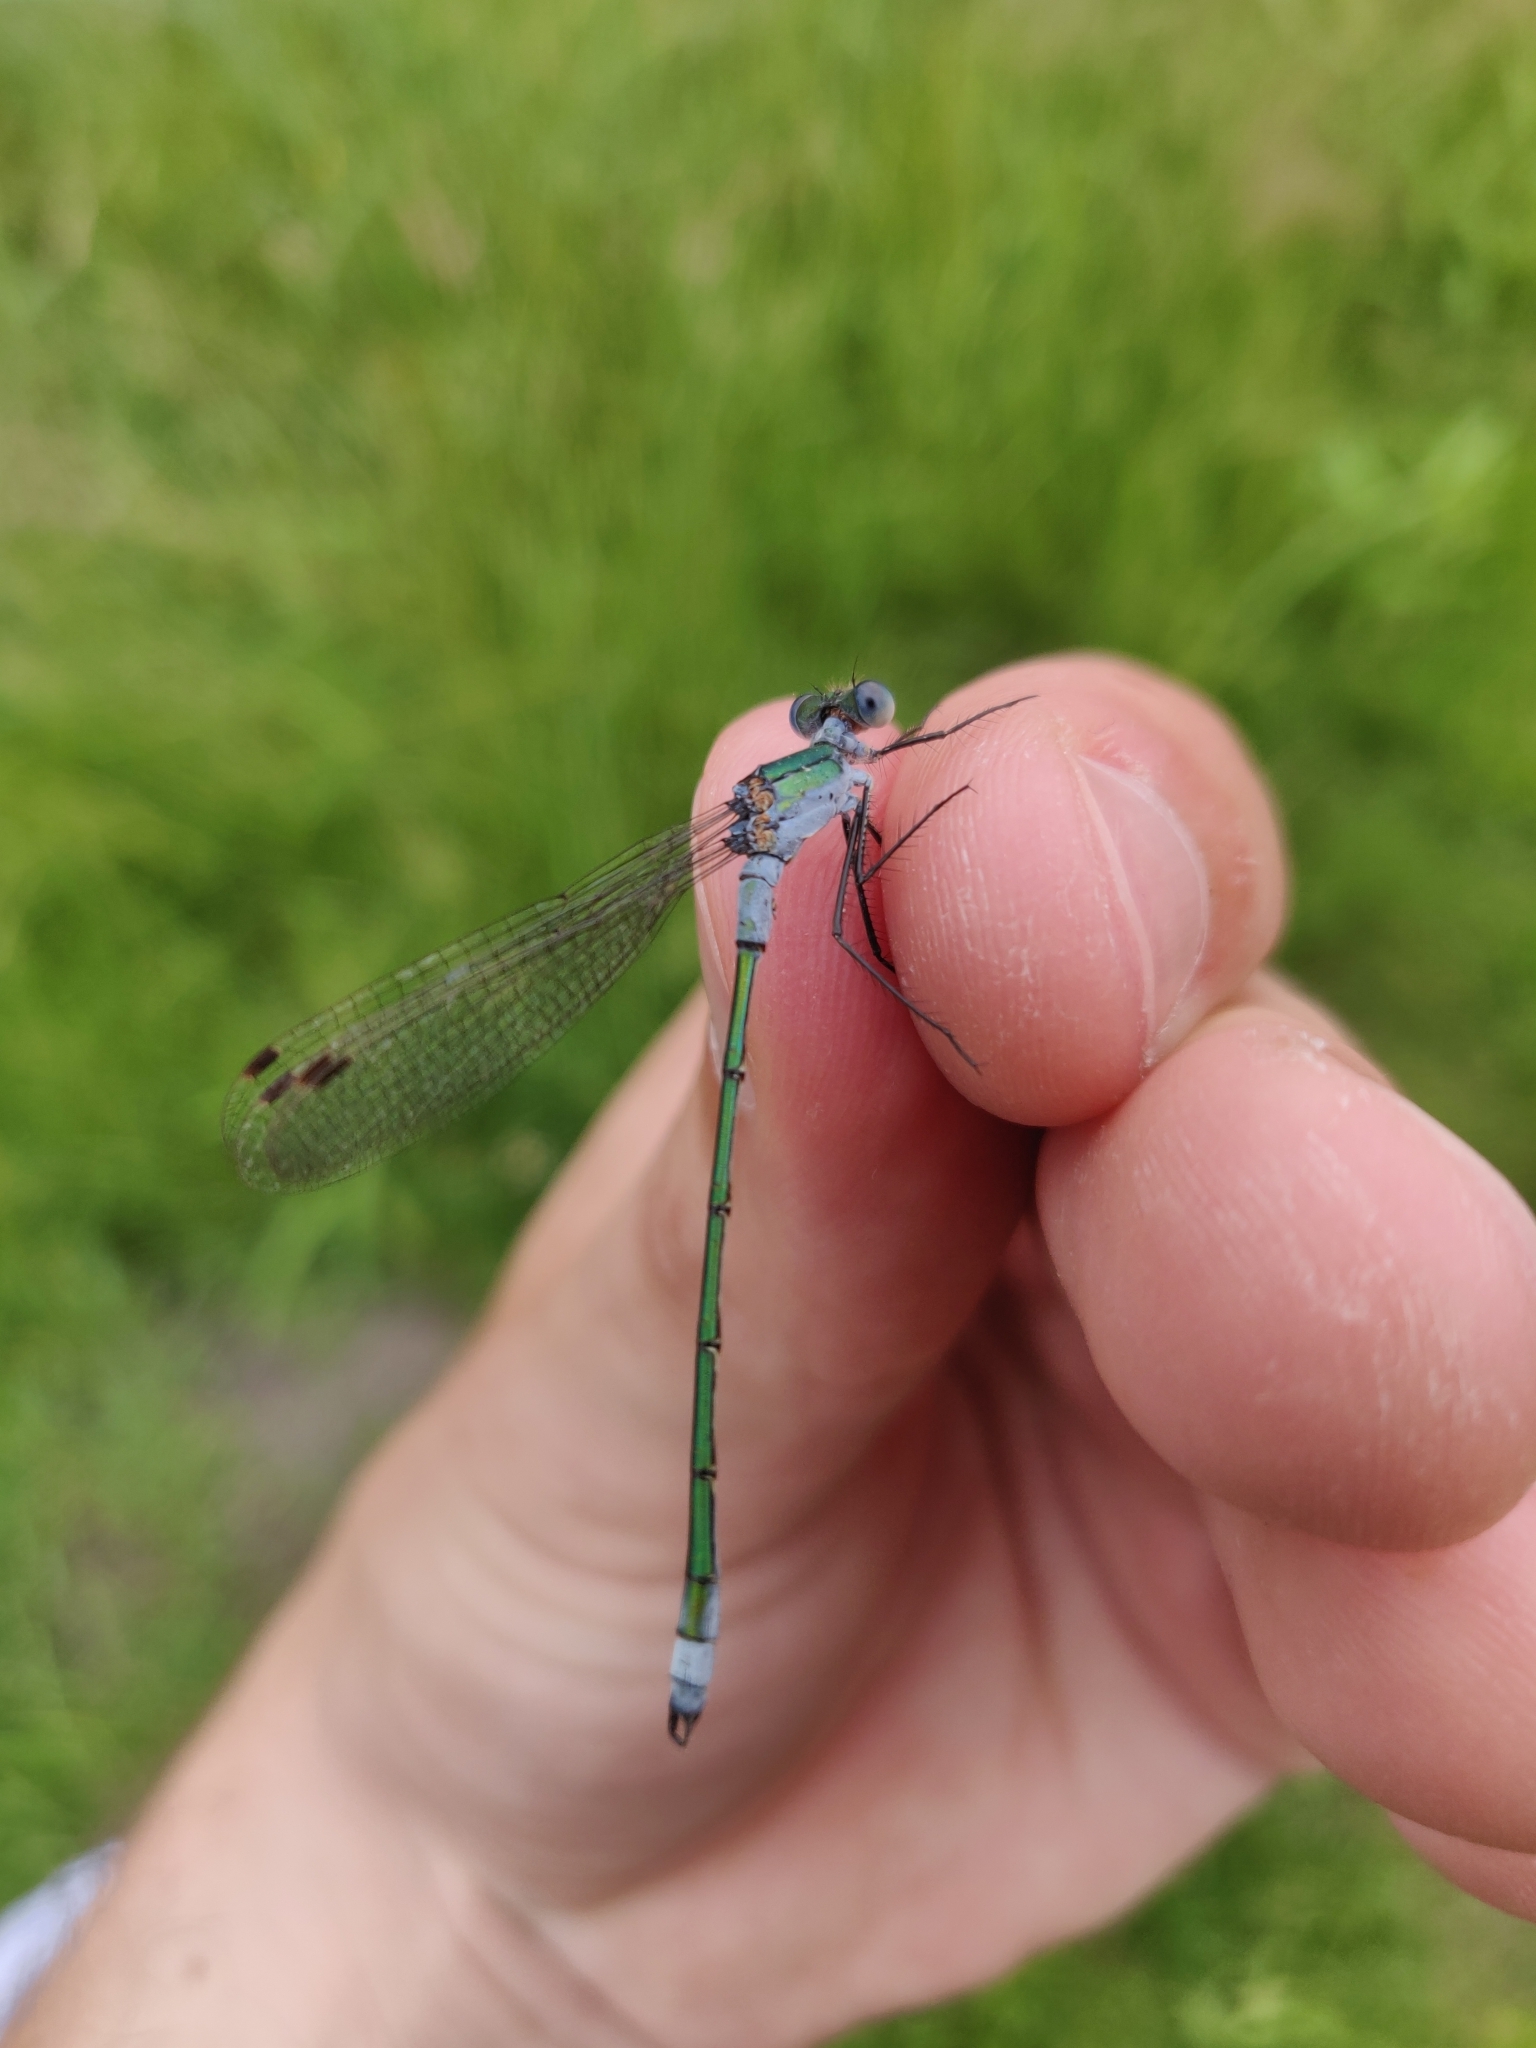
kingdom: Animalia
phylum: Arthropoda
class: Insecta
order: Odonata
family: Lestidae
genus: Lestes
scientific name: Lestes sponsa
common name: Common spreadwing
